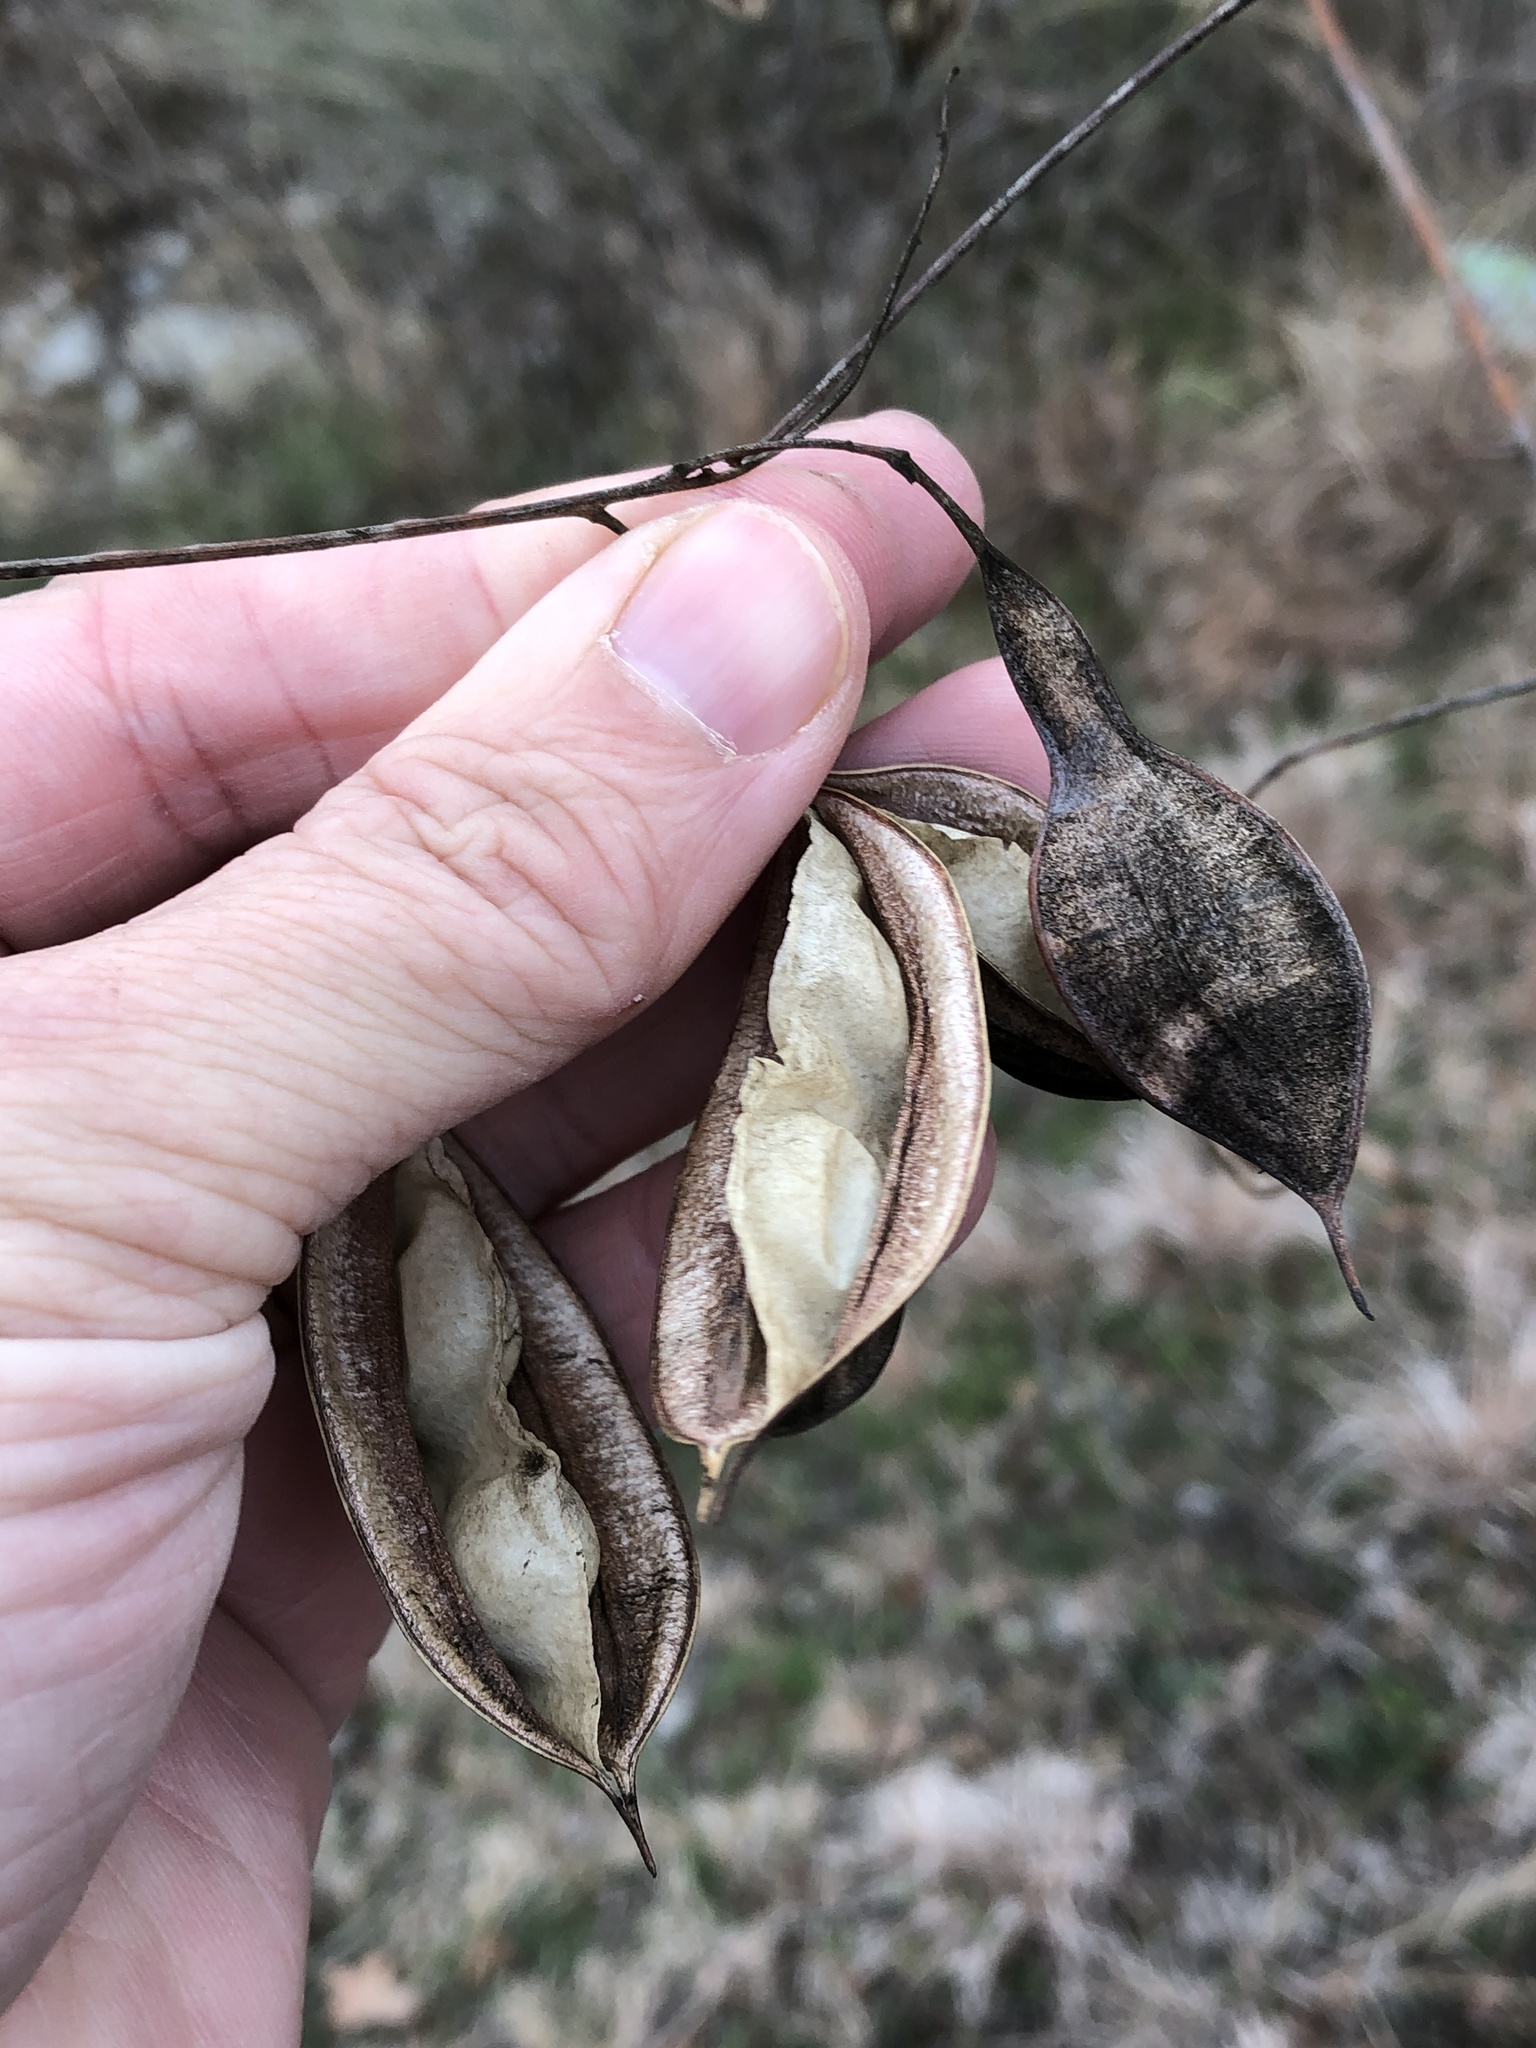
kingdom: Plantae
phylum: Tracheophyta
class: Magnoliopsida
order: Fabales
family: Fabaceae
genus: Sesbania
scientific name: Sesbania vesicaria
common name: Bagpod
